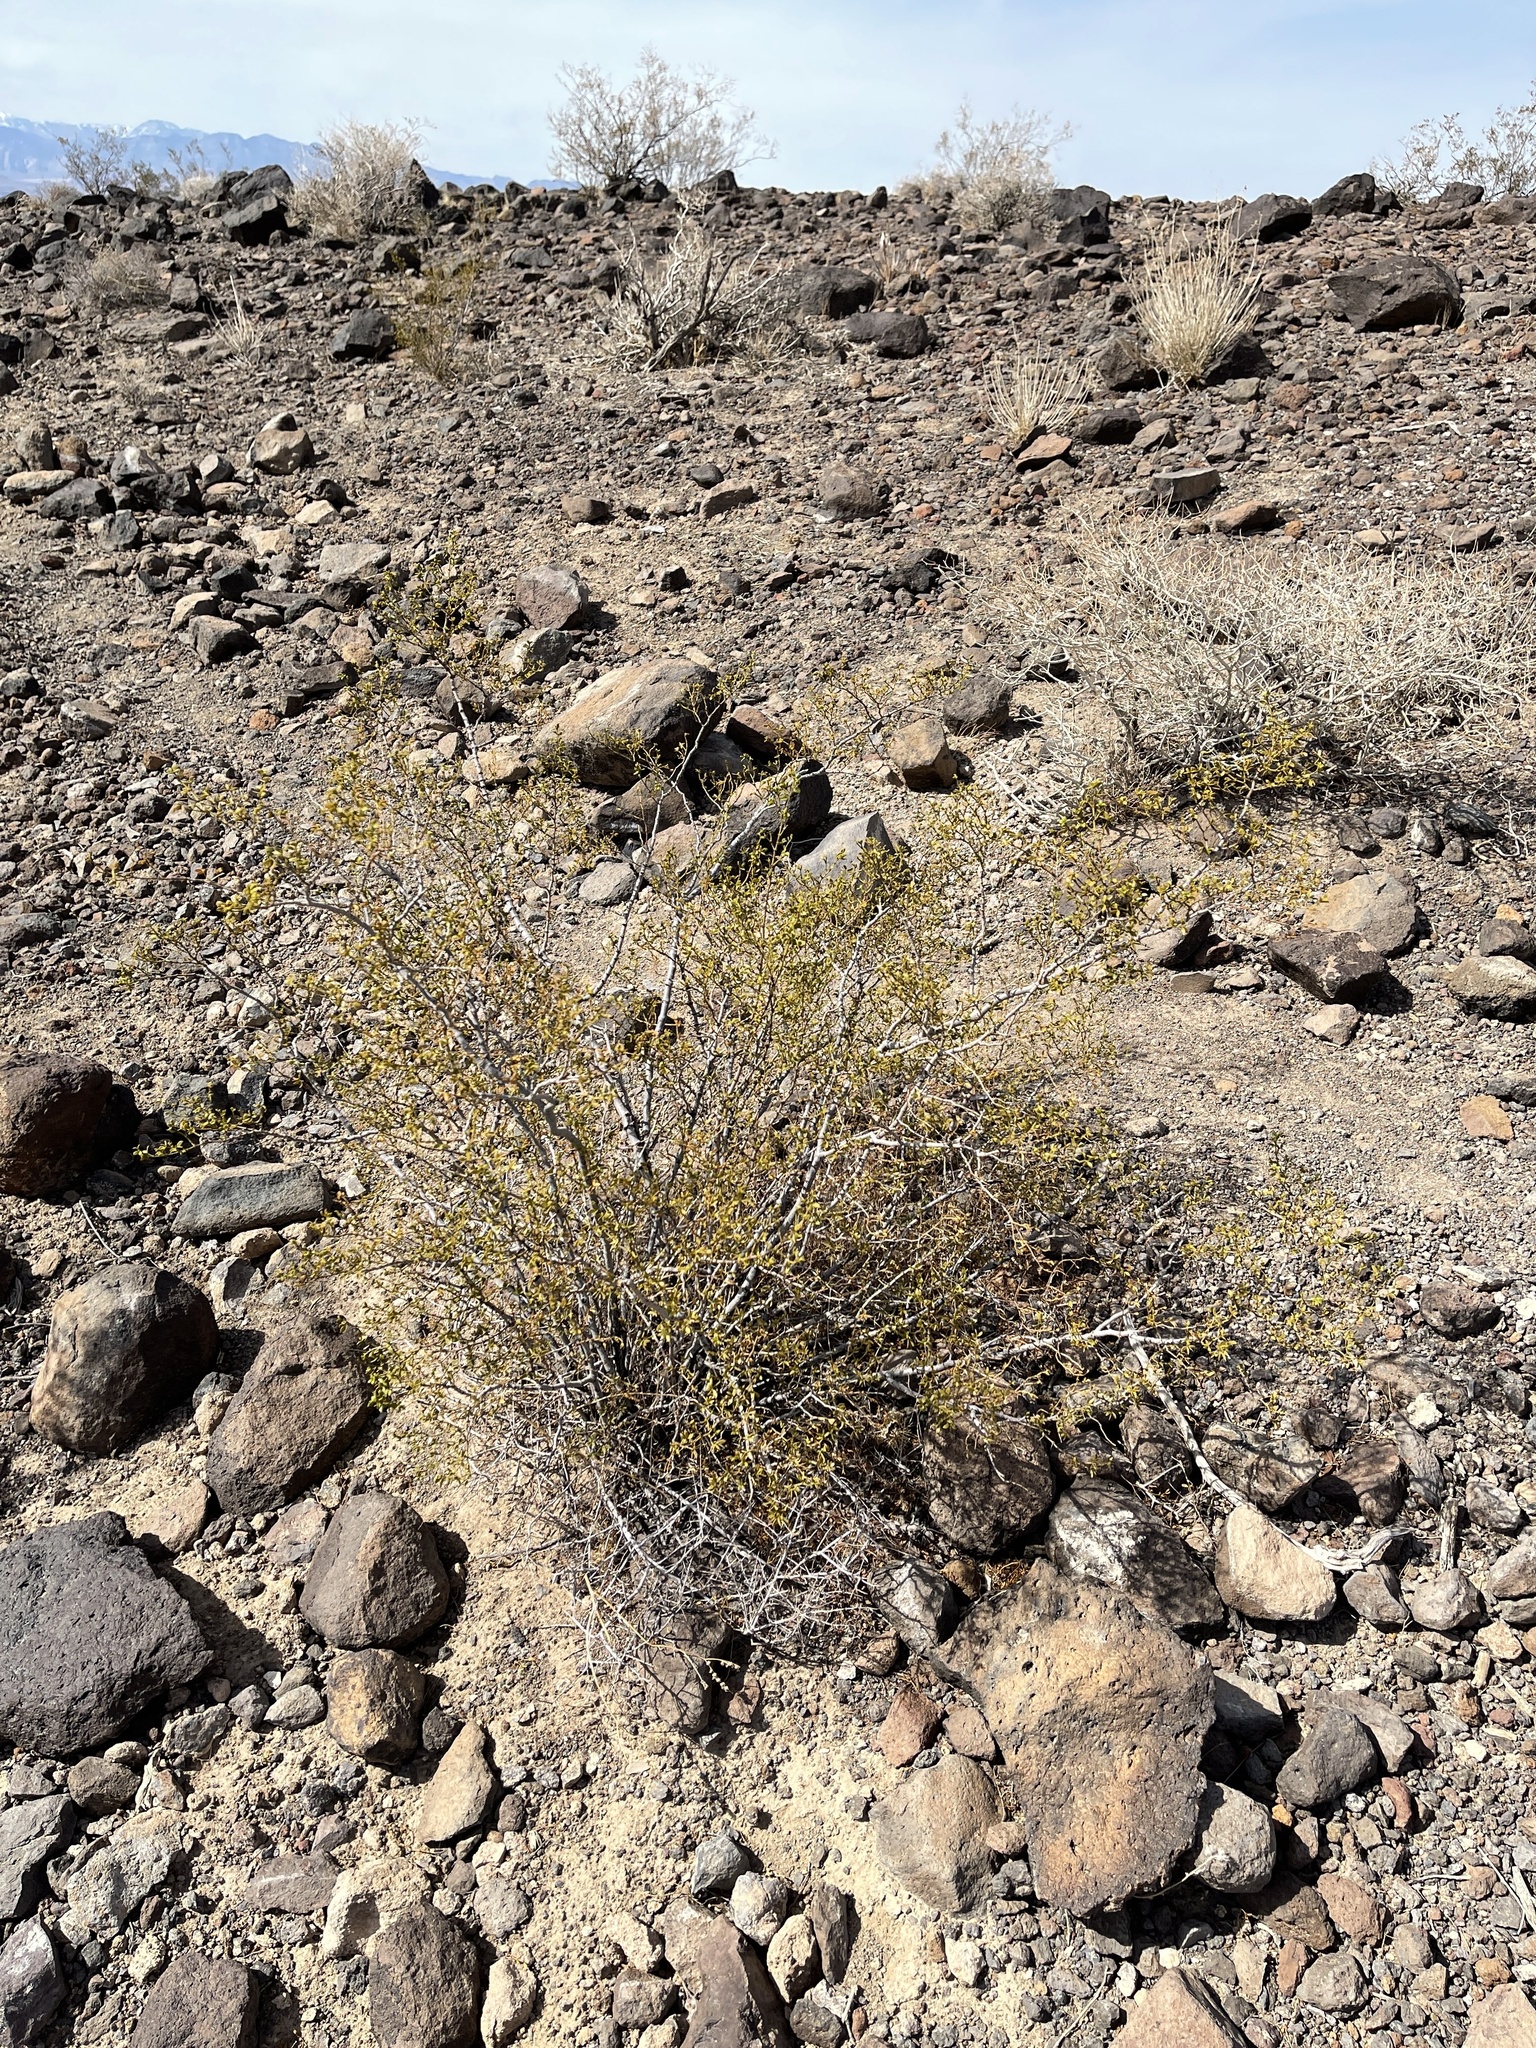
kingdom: Plantae
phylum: Tracheophyta
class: Magnoliopsida
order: Zygophyllales
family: Zygophyllaceae
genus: Larrea
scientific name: Larrea tridentata
